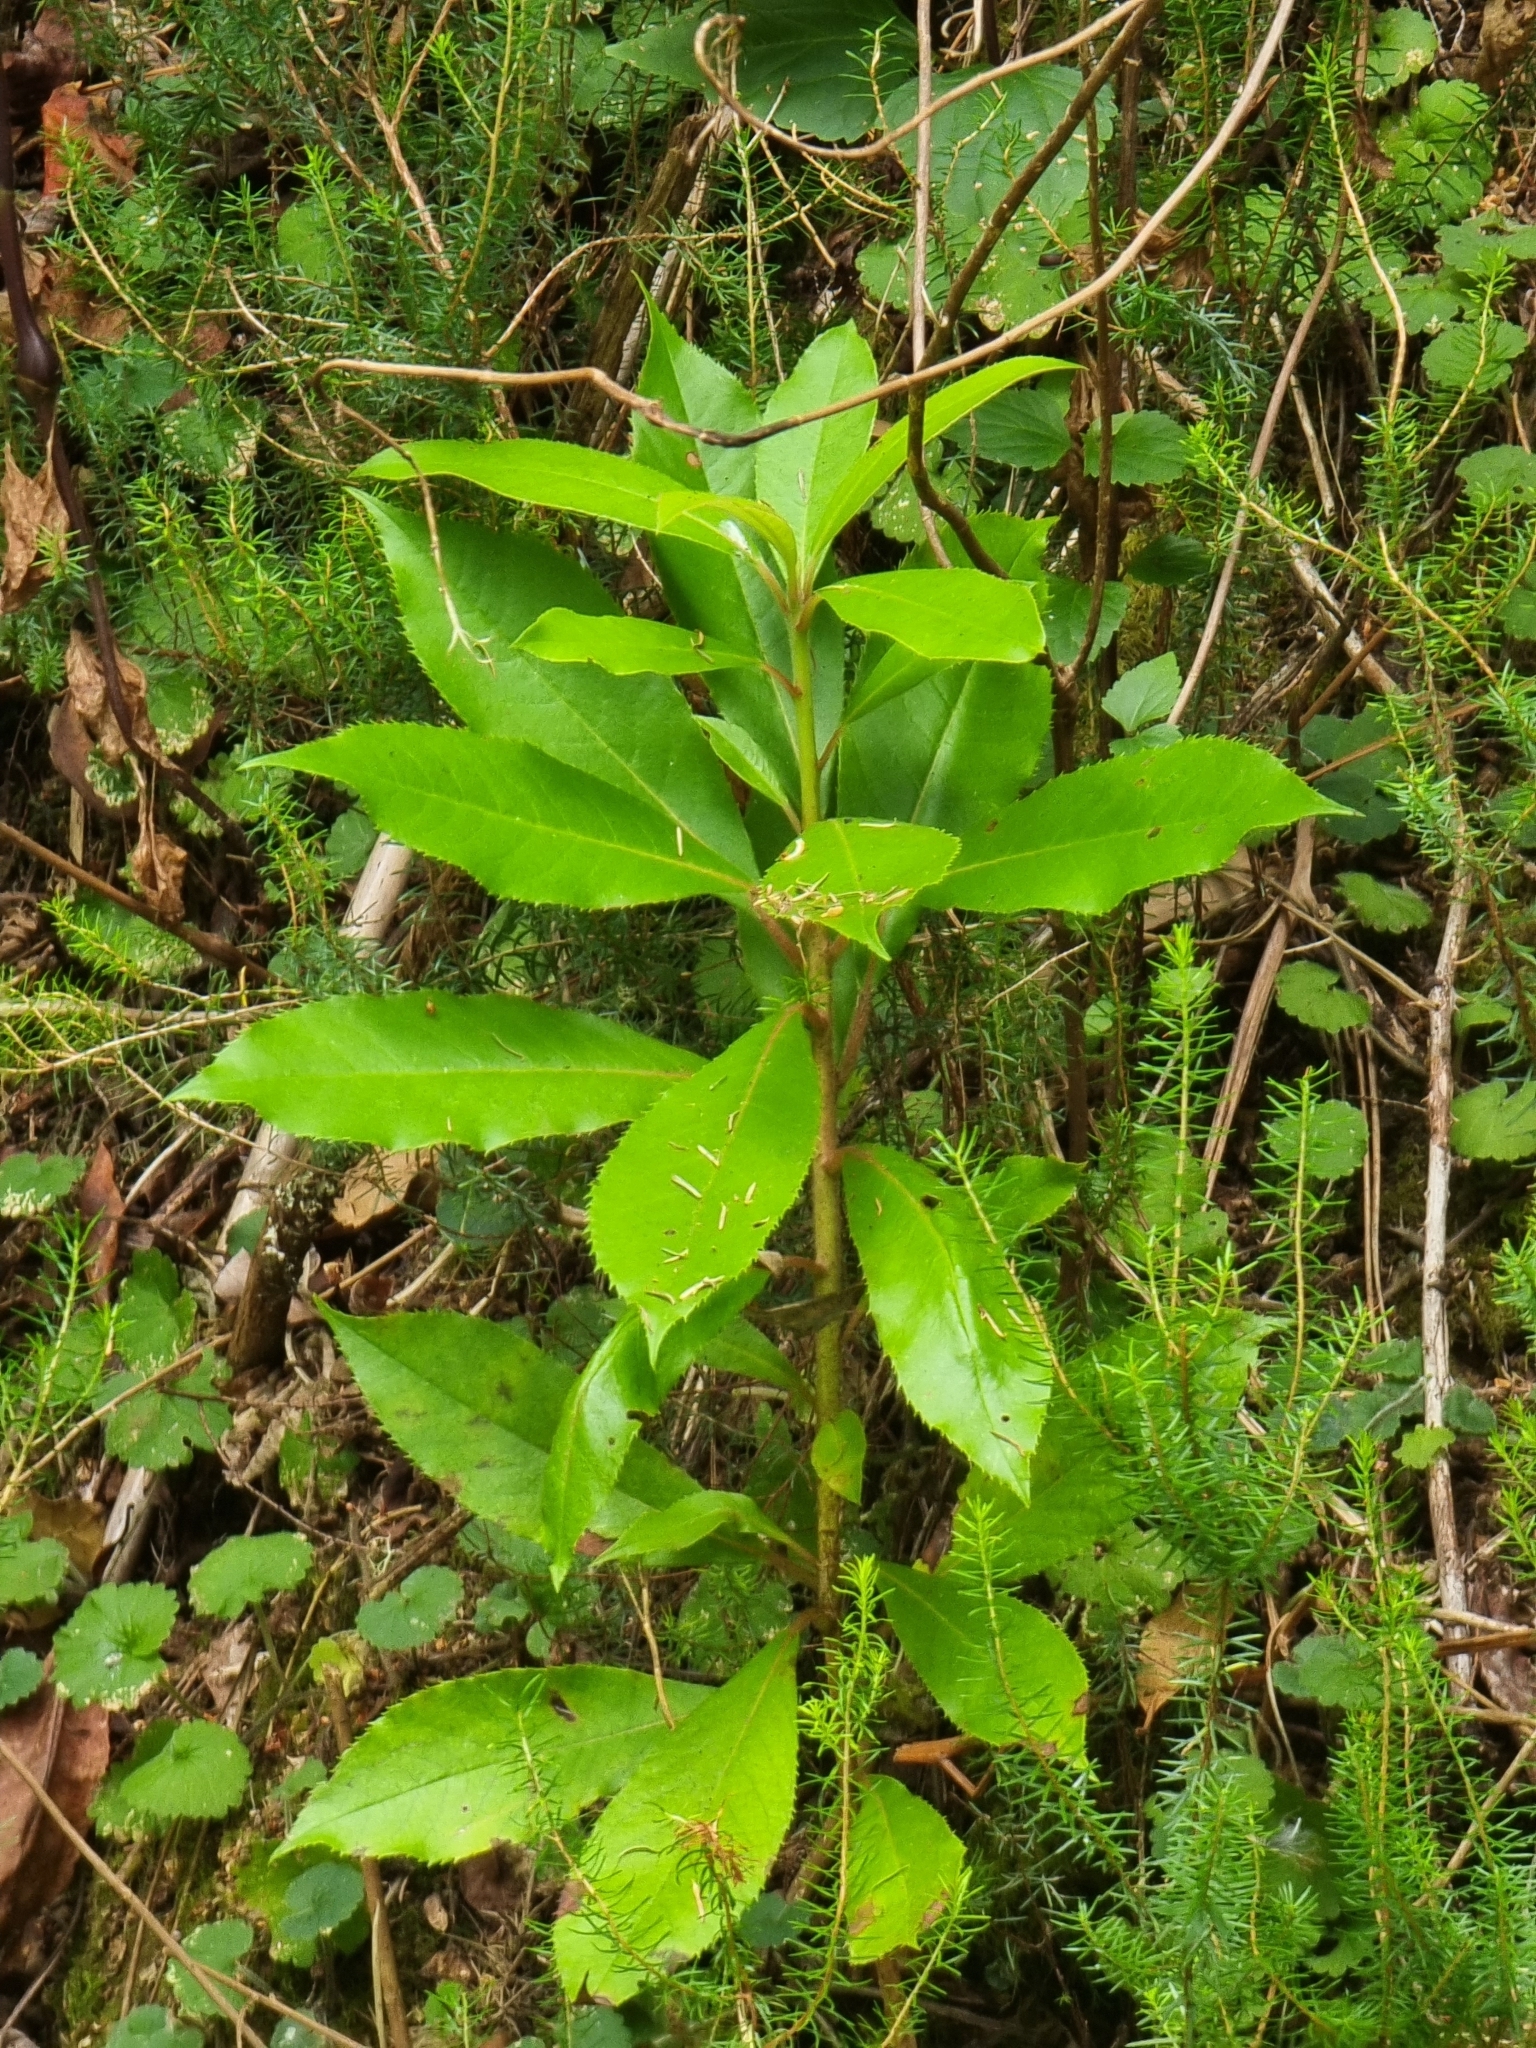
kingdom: Plantae
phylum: Tracheophyta
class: Magnoliopsida
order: Ericales
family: Clethraceae
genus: Clethra
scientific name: Clethra arborea
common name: Lily-of-the-valley-tree
